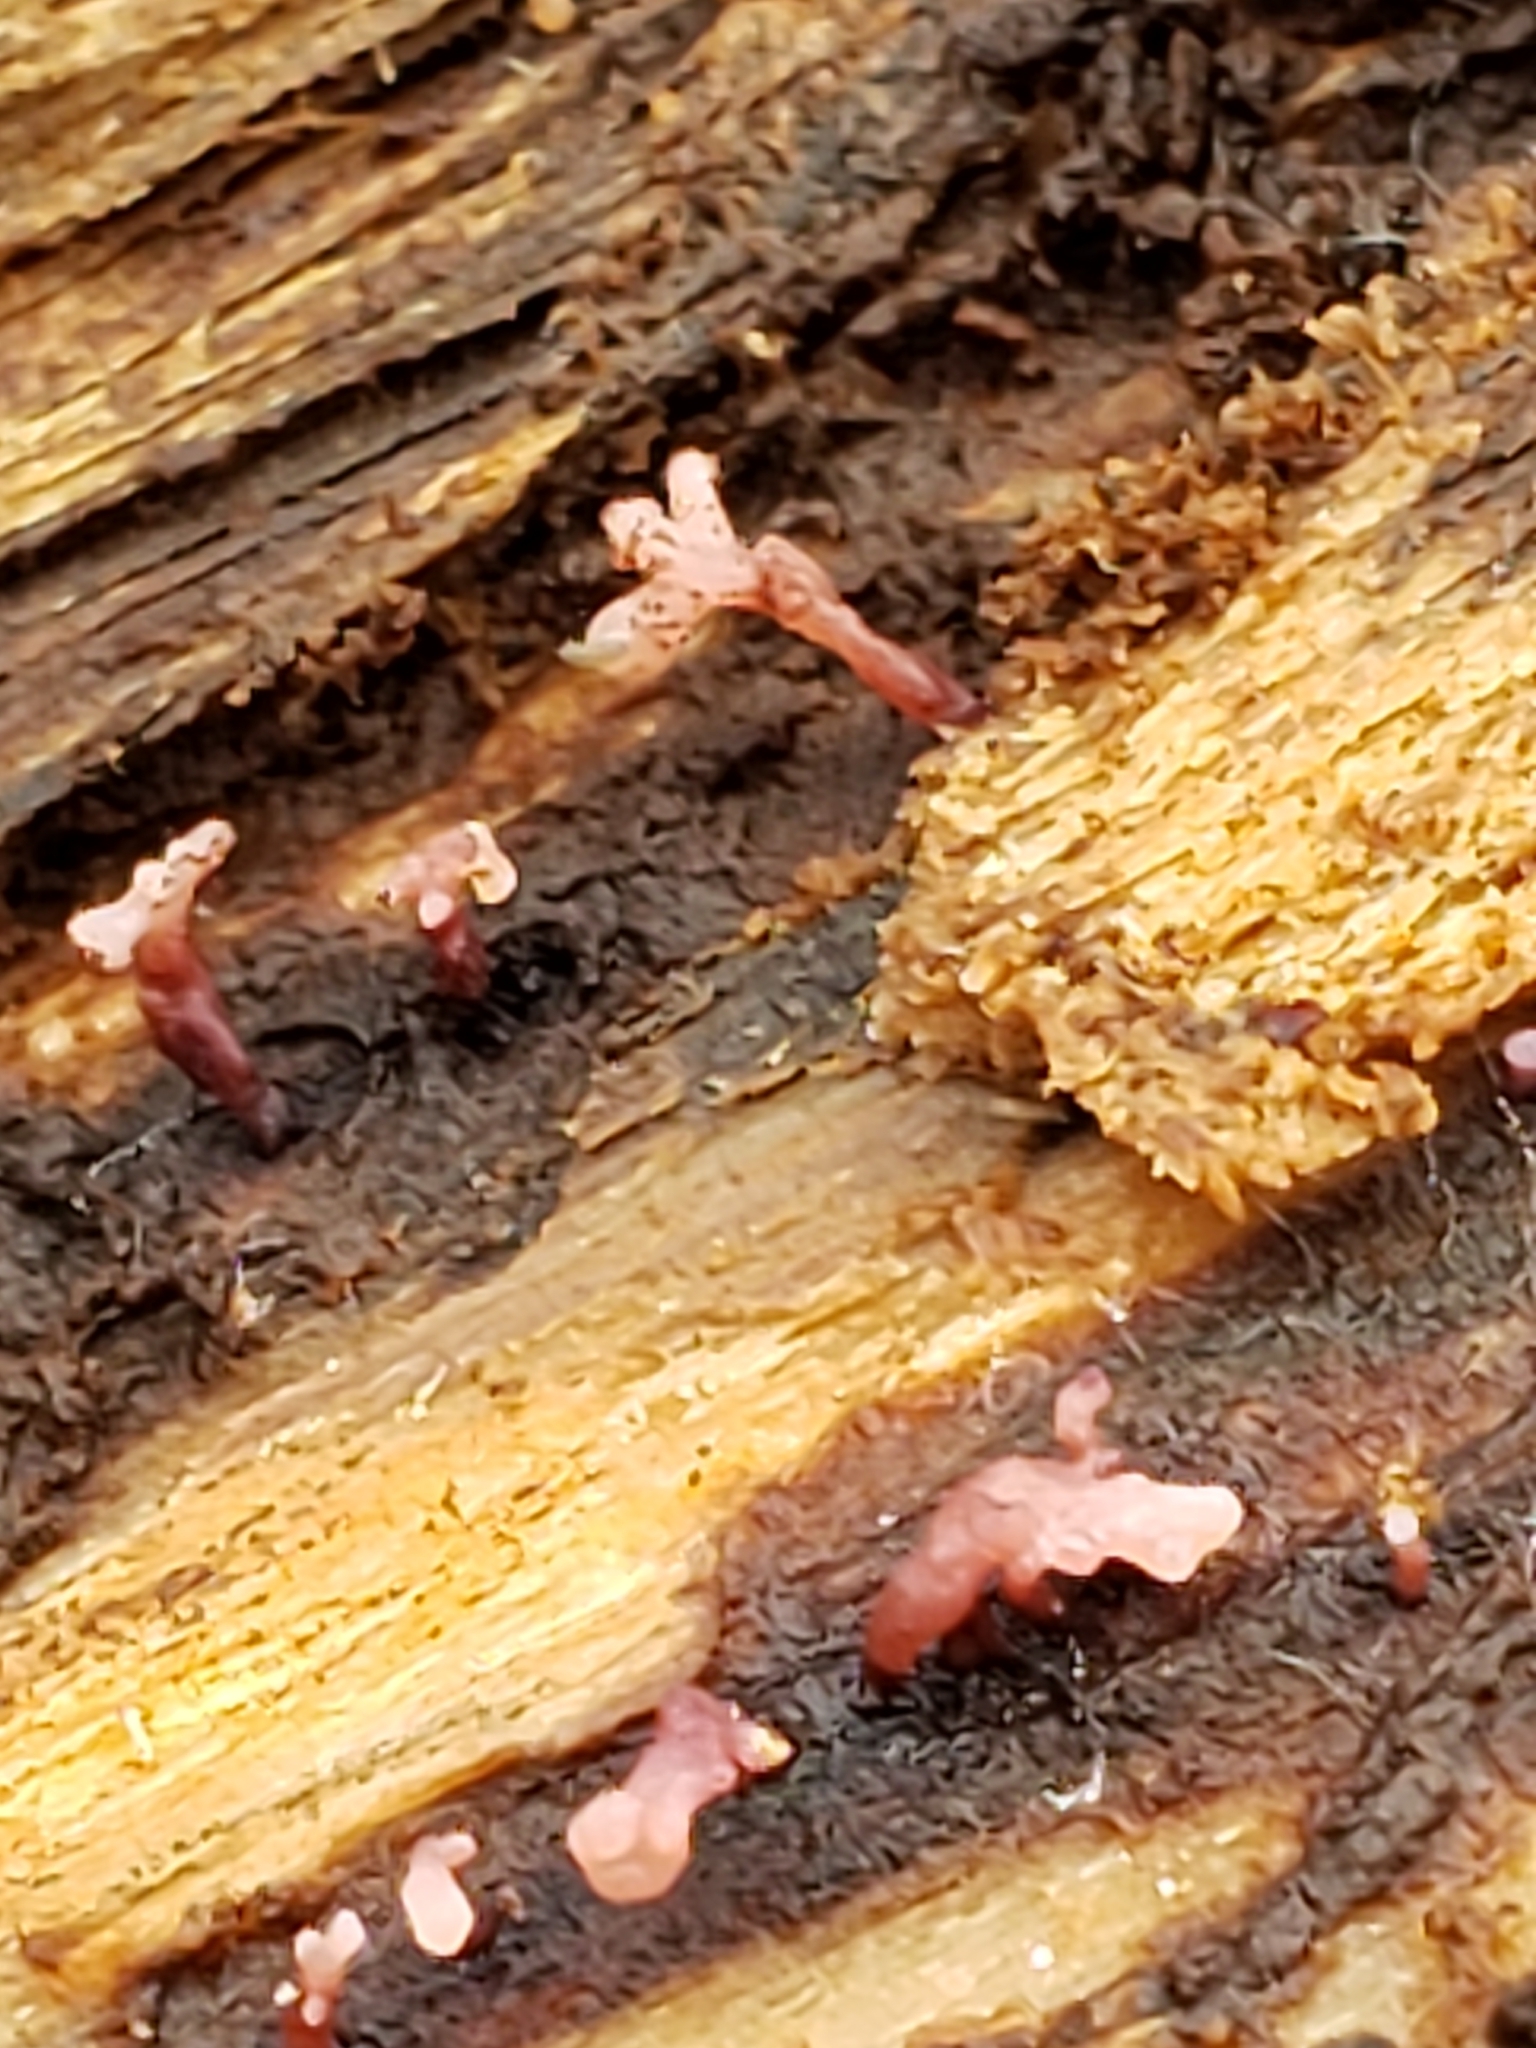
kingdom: Fungi
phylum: Ascomycota
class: Leotiomycetes
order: Helotiales
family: Gelatinodiscaceae
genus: Ascocoryne
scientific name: Ascocoryne sarcoides
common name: Purple jellydisc
